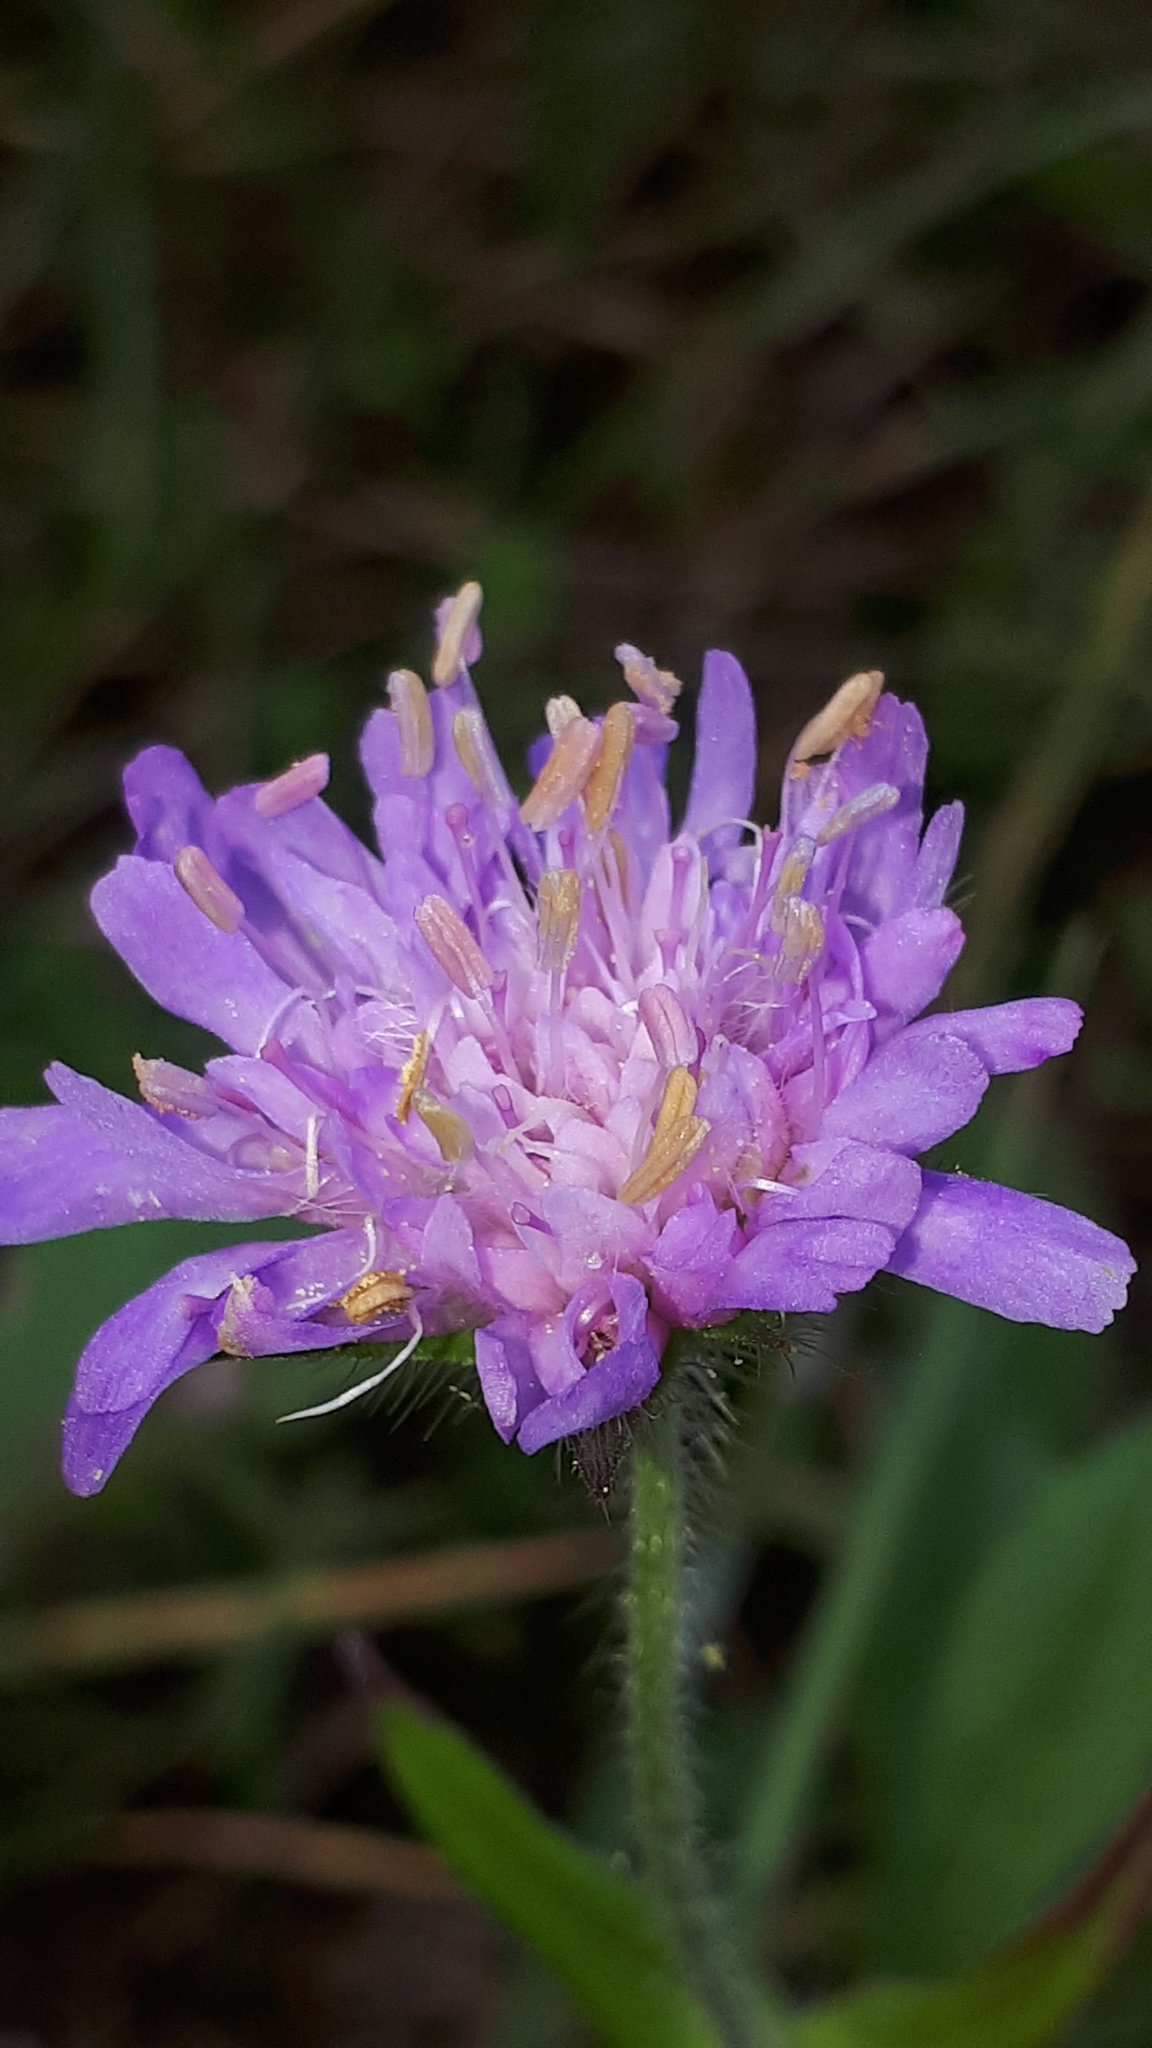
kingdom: Plantae
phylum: Tracheophyta
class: Magnoliopsida
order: Dipsacales
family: Caprifoliaceae
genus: Knautia
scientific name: Knautia dipsacifolia
